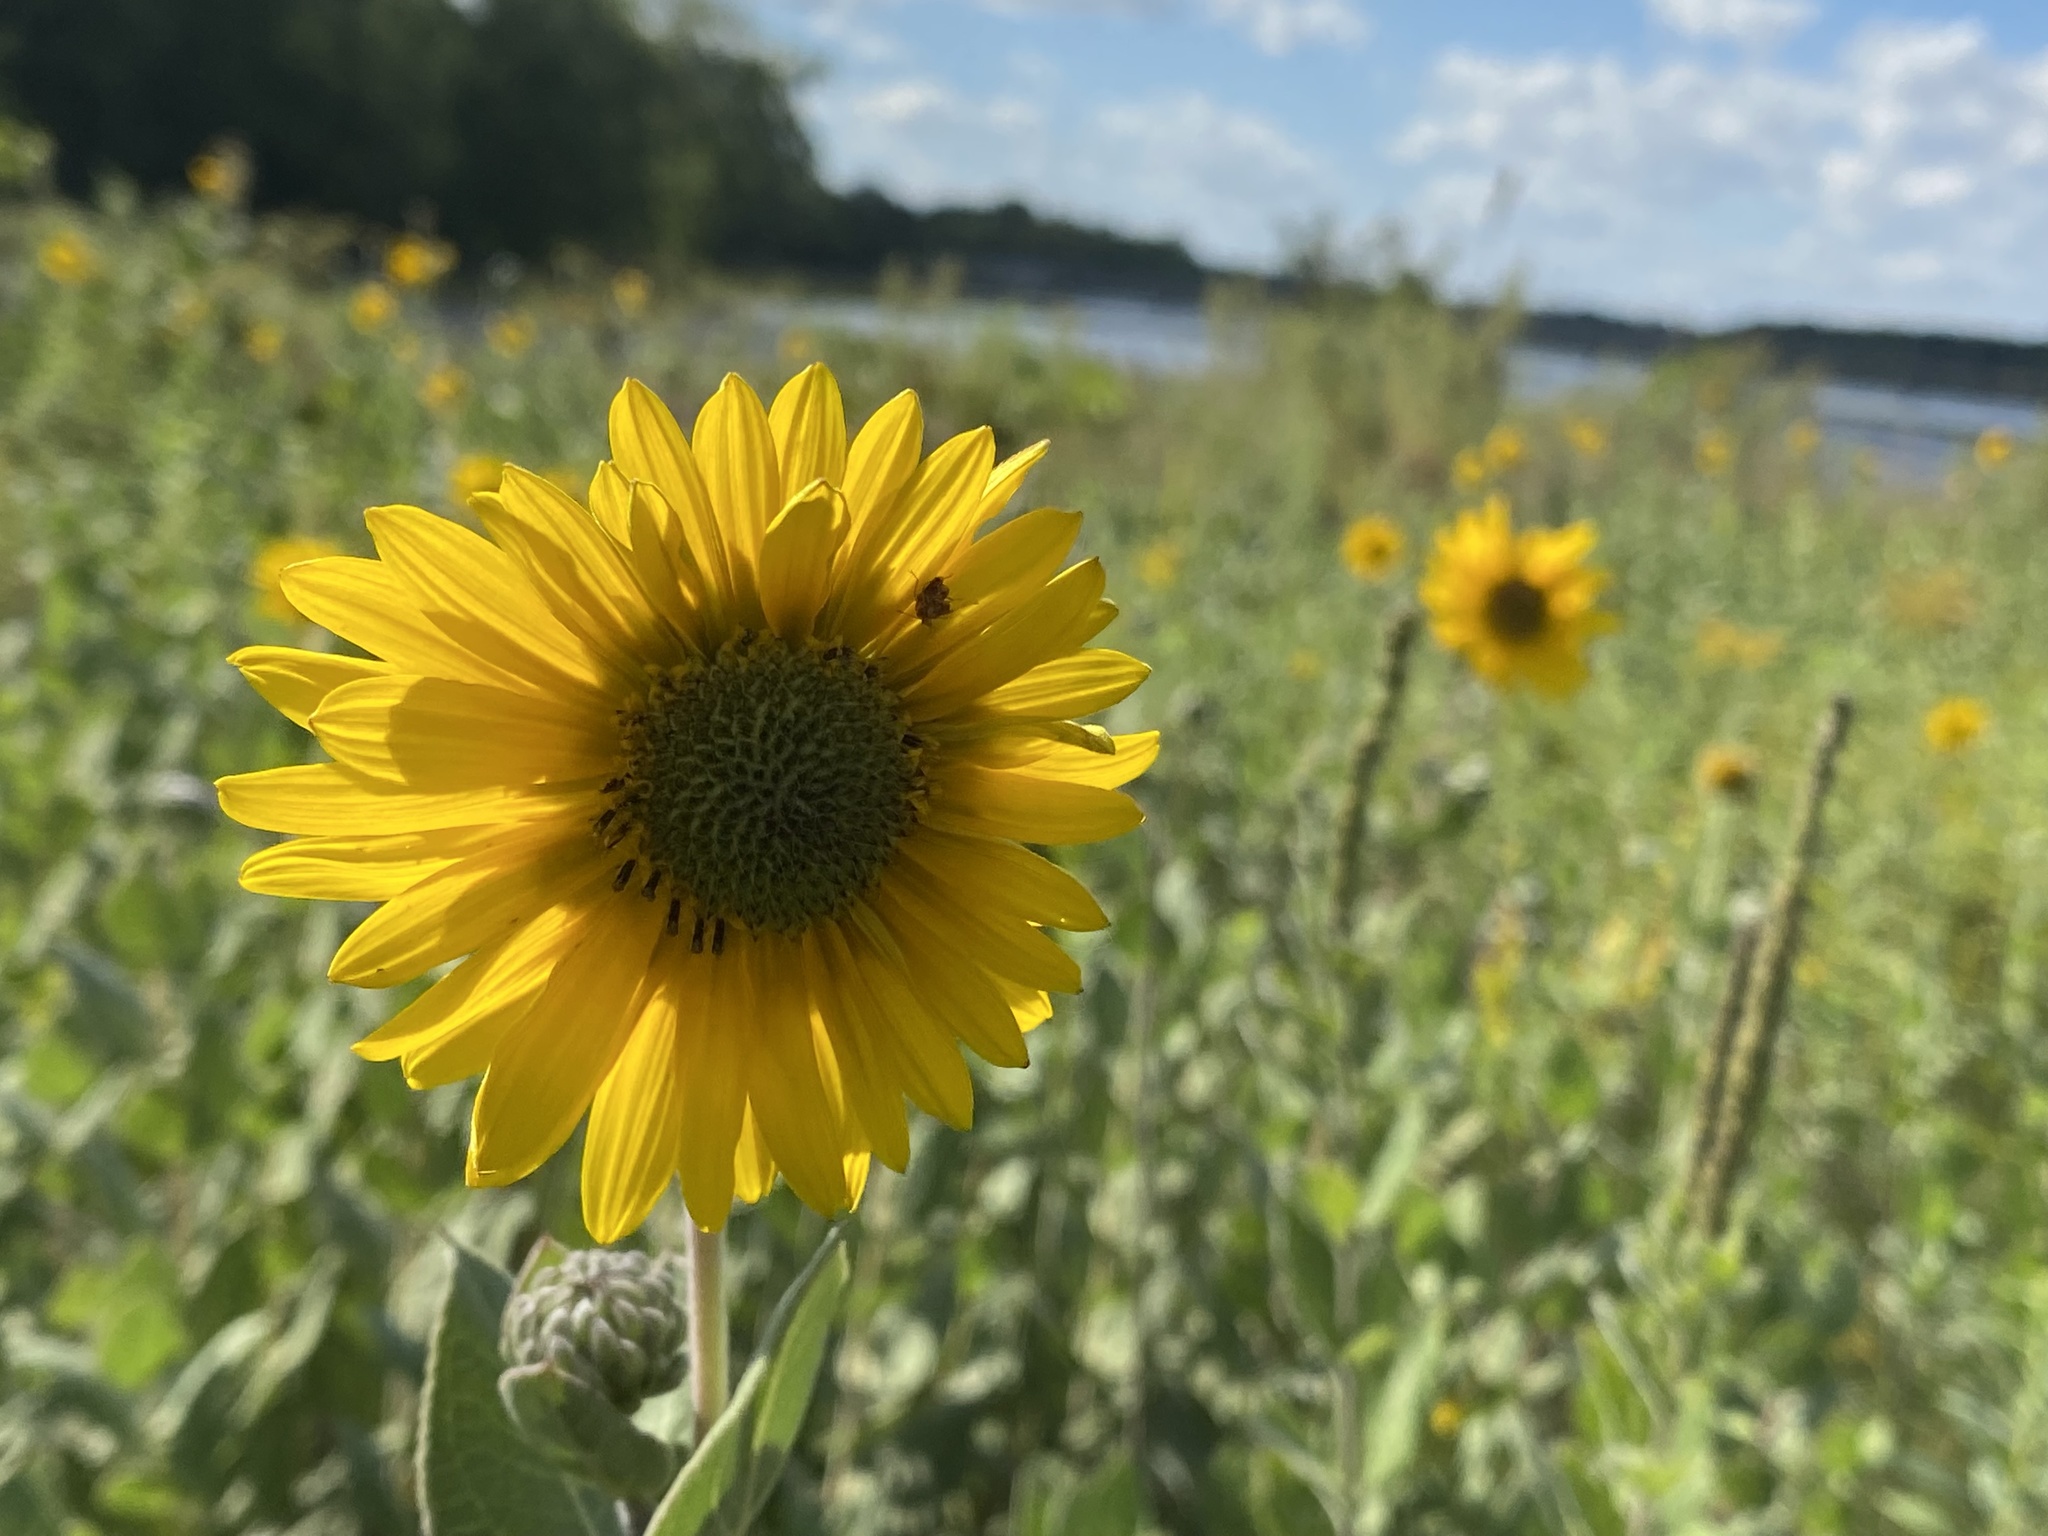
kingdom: Plantae
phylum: Tracheophyta
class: Magnoliopsida
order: Asterales
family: Asteraceae
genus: Helianthus
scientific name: Helianthus annuus
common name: Sunflower
